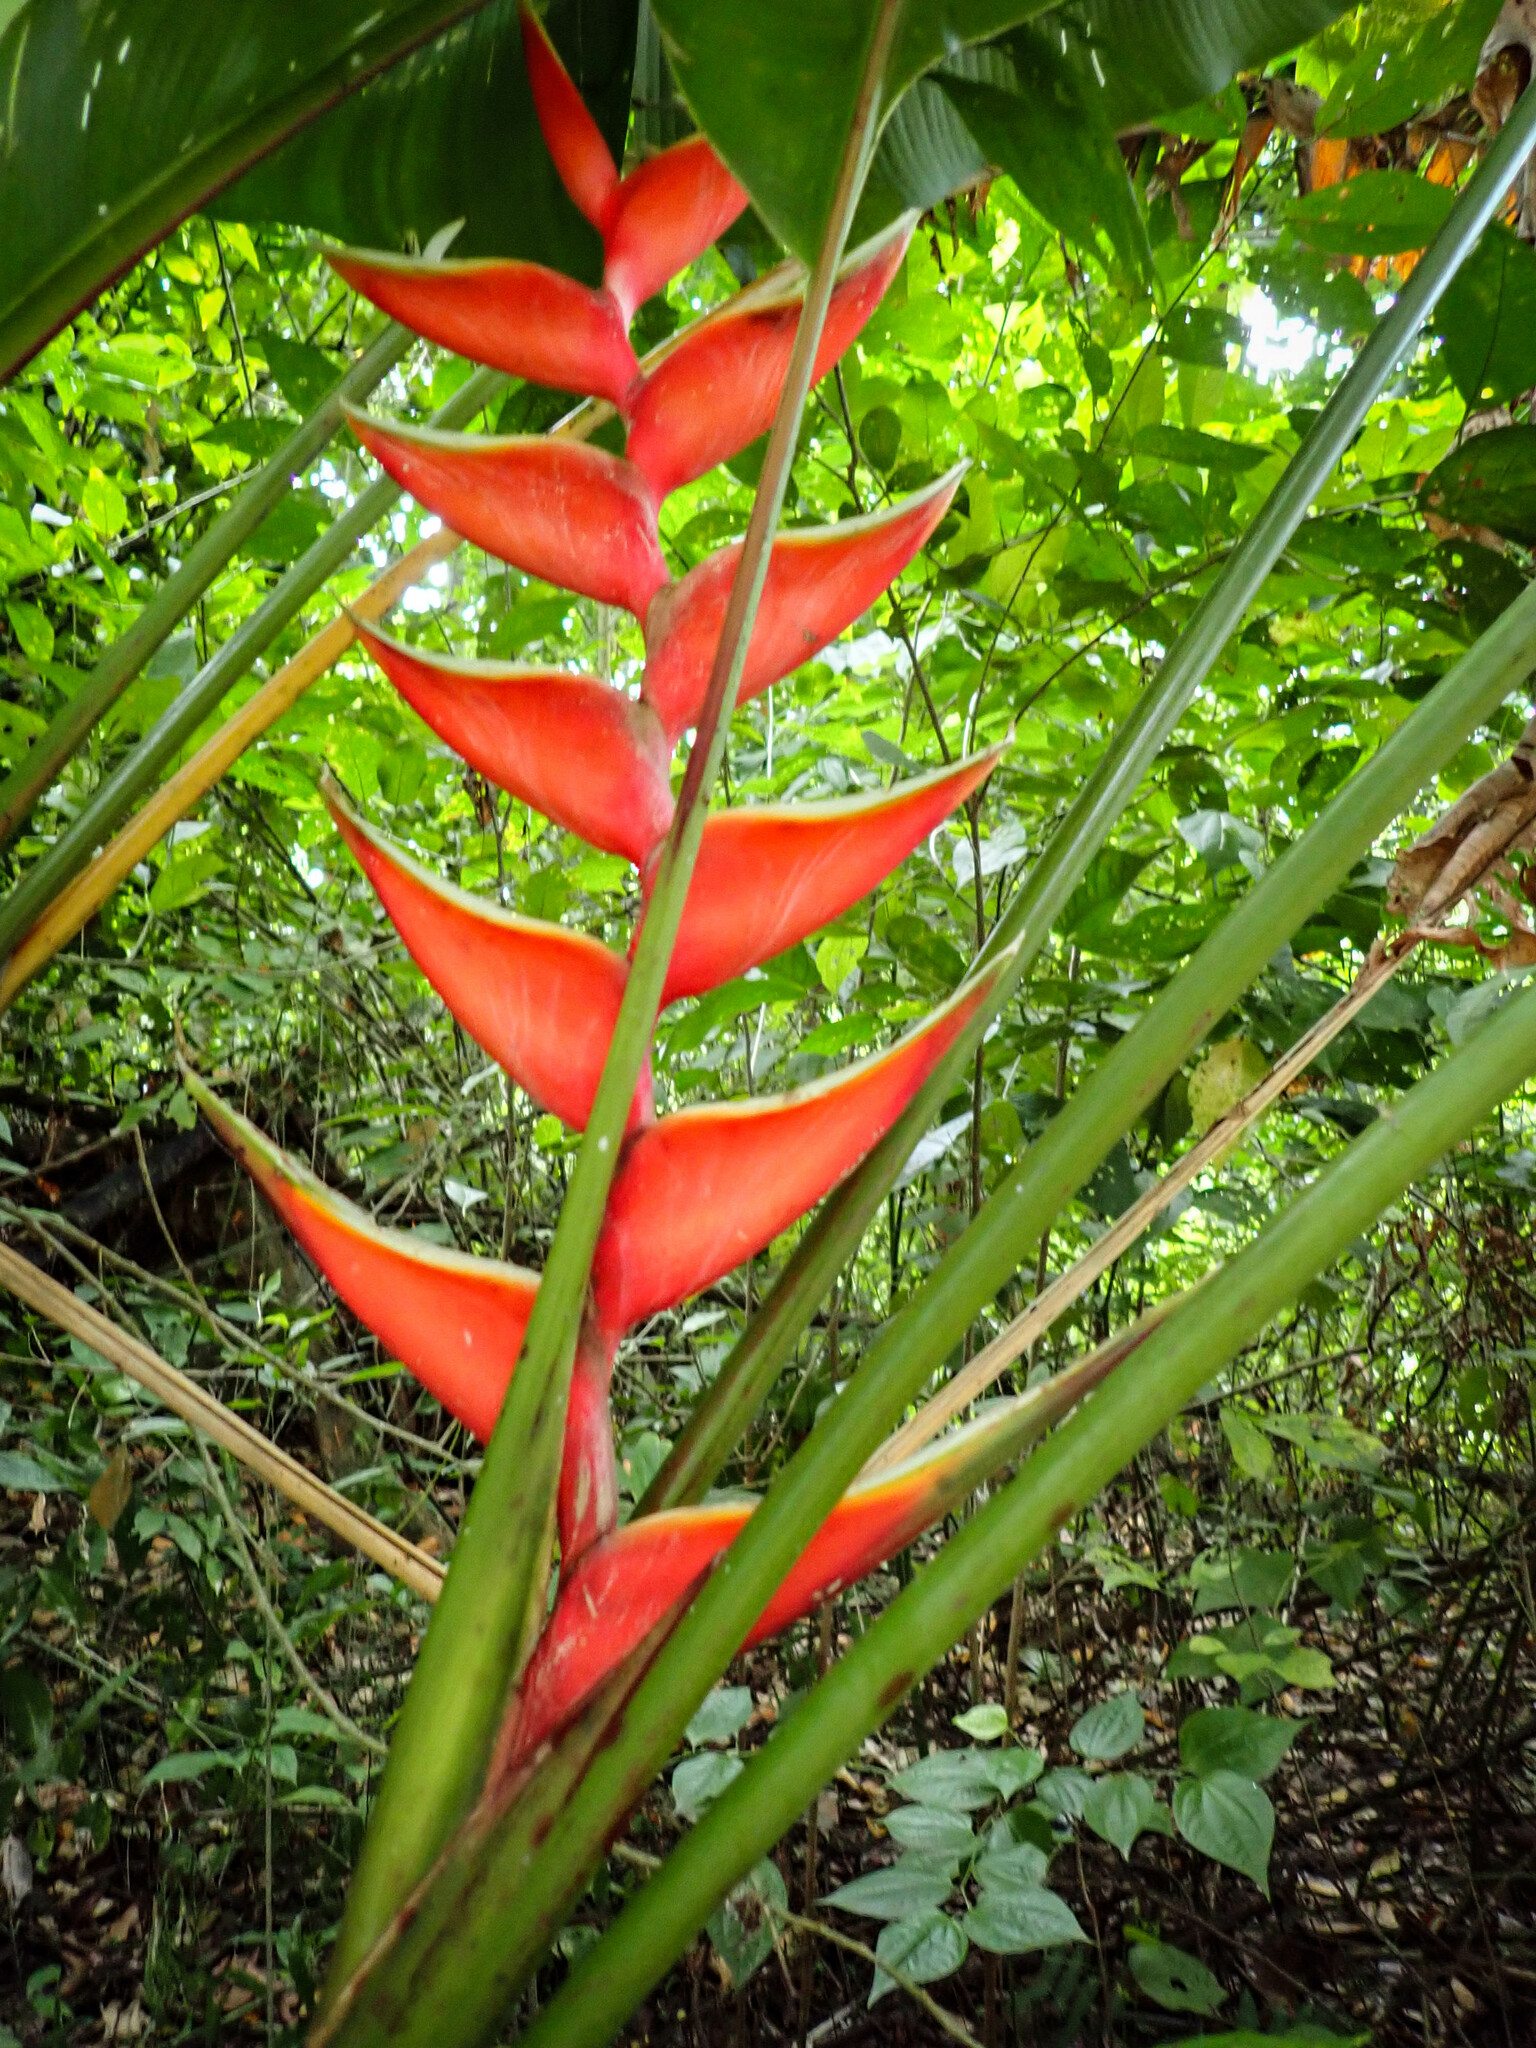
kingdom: Plantae
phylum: Tracheophyta
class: Liliopsida
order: Zingiberales
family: Heliconiaceae
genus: Heliconia
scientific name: Heliconia bihai
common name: Macaw flower
